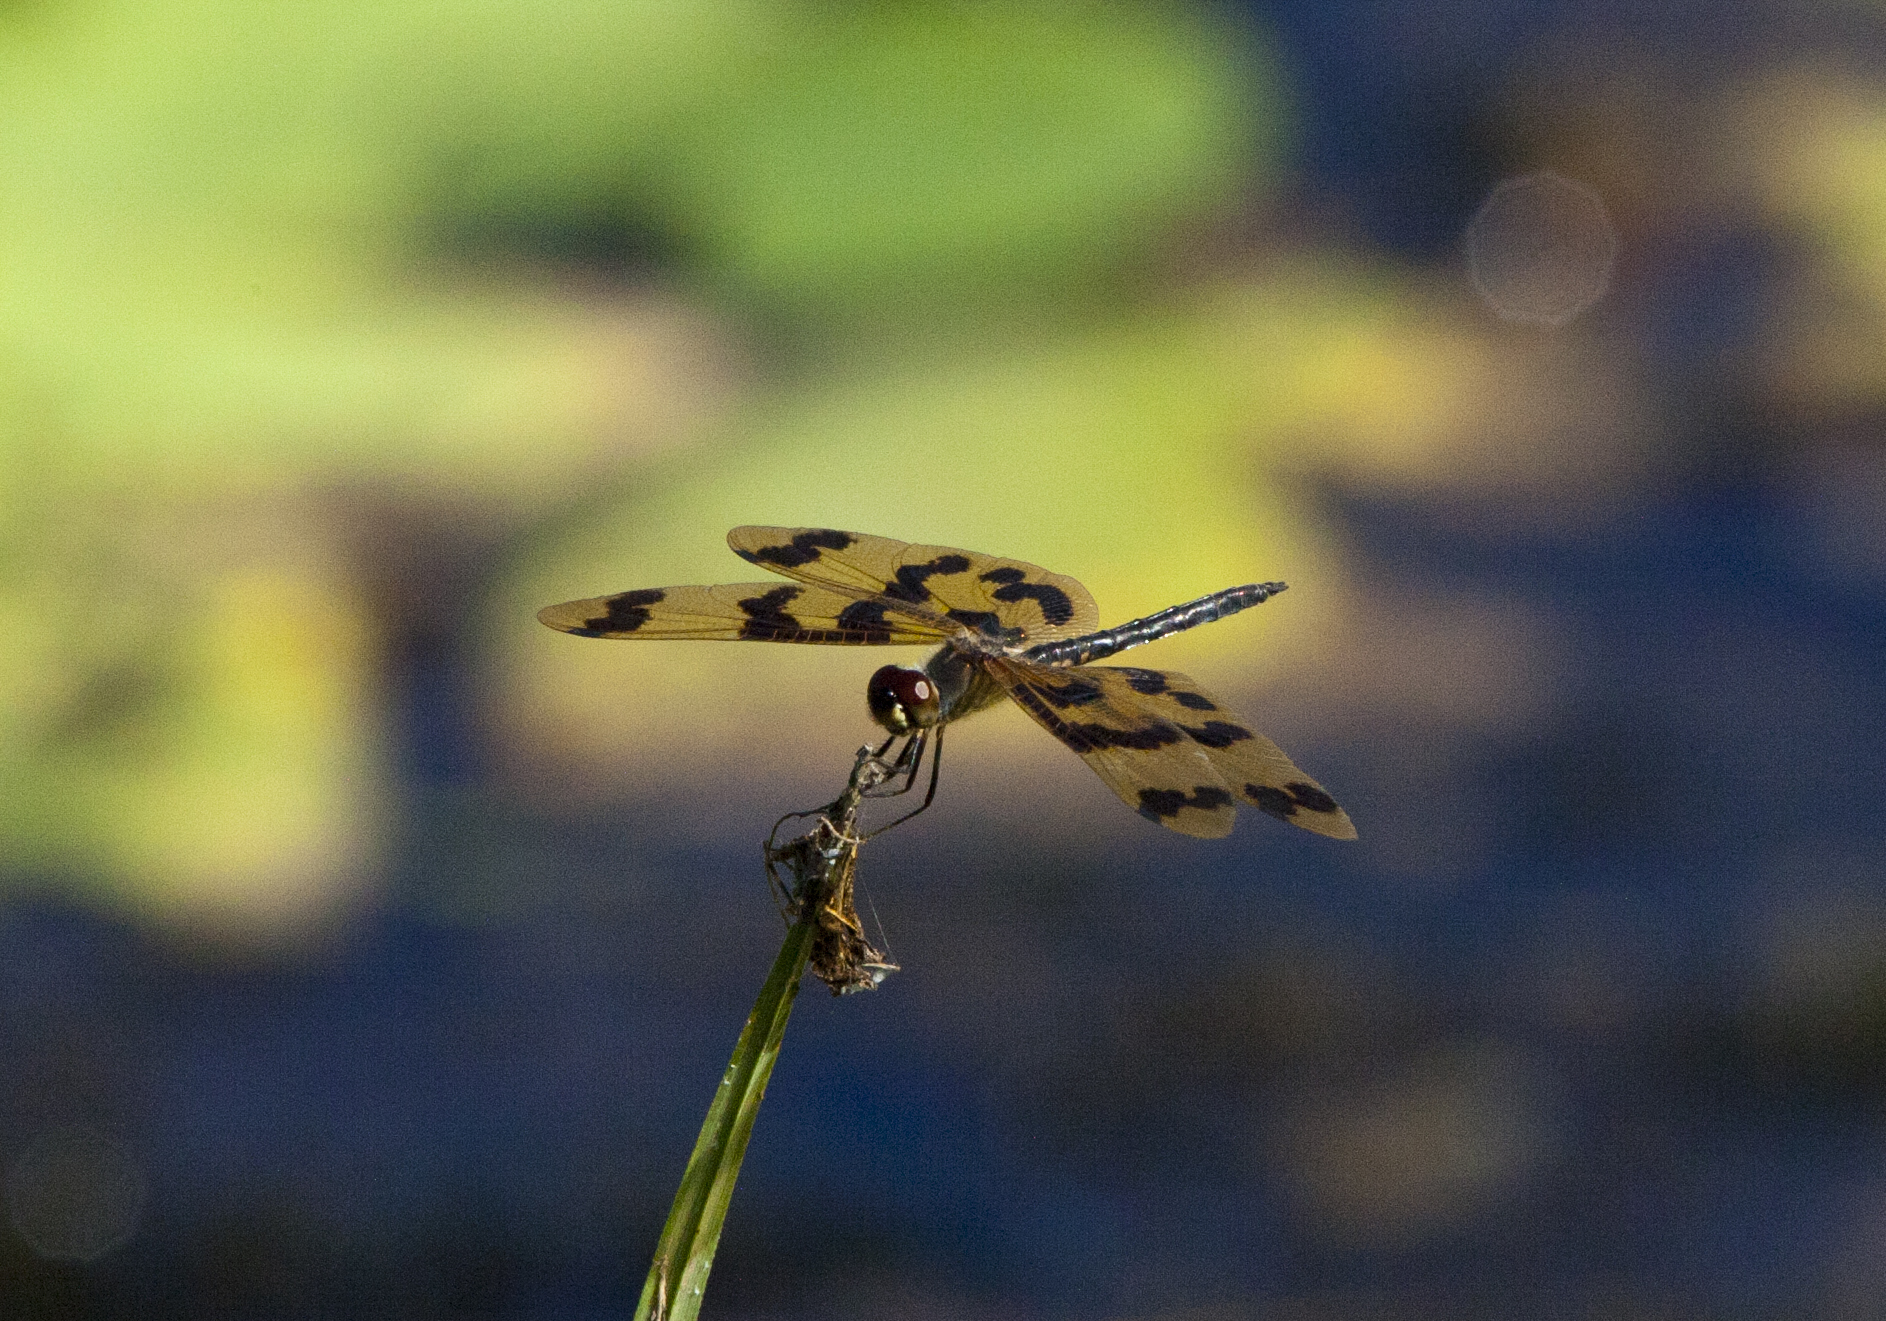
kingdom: Animalia
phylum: Arthropoda
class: Insecta
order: Odonata
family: Libellulidae
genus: Rhyothemis
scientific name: Rhyothemis graphiptera
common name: Graphic flutterer
